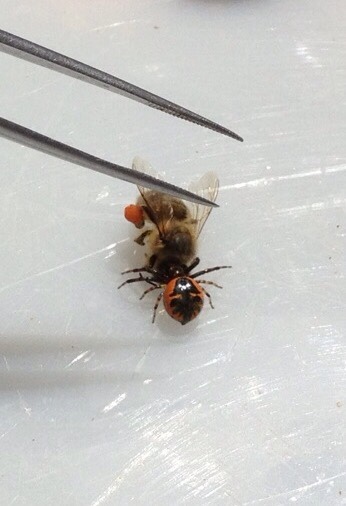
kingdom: Animalia
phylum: Arthropoda
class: Arachnida
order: Araneae
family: Thomisidae
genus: Synema
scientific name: Synema globosum
